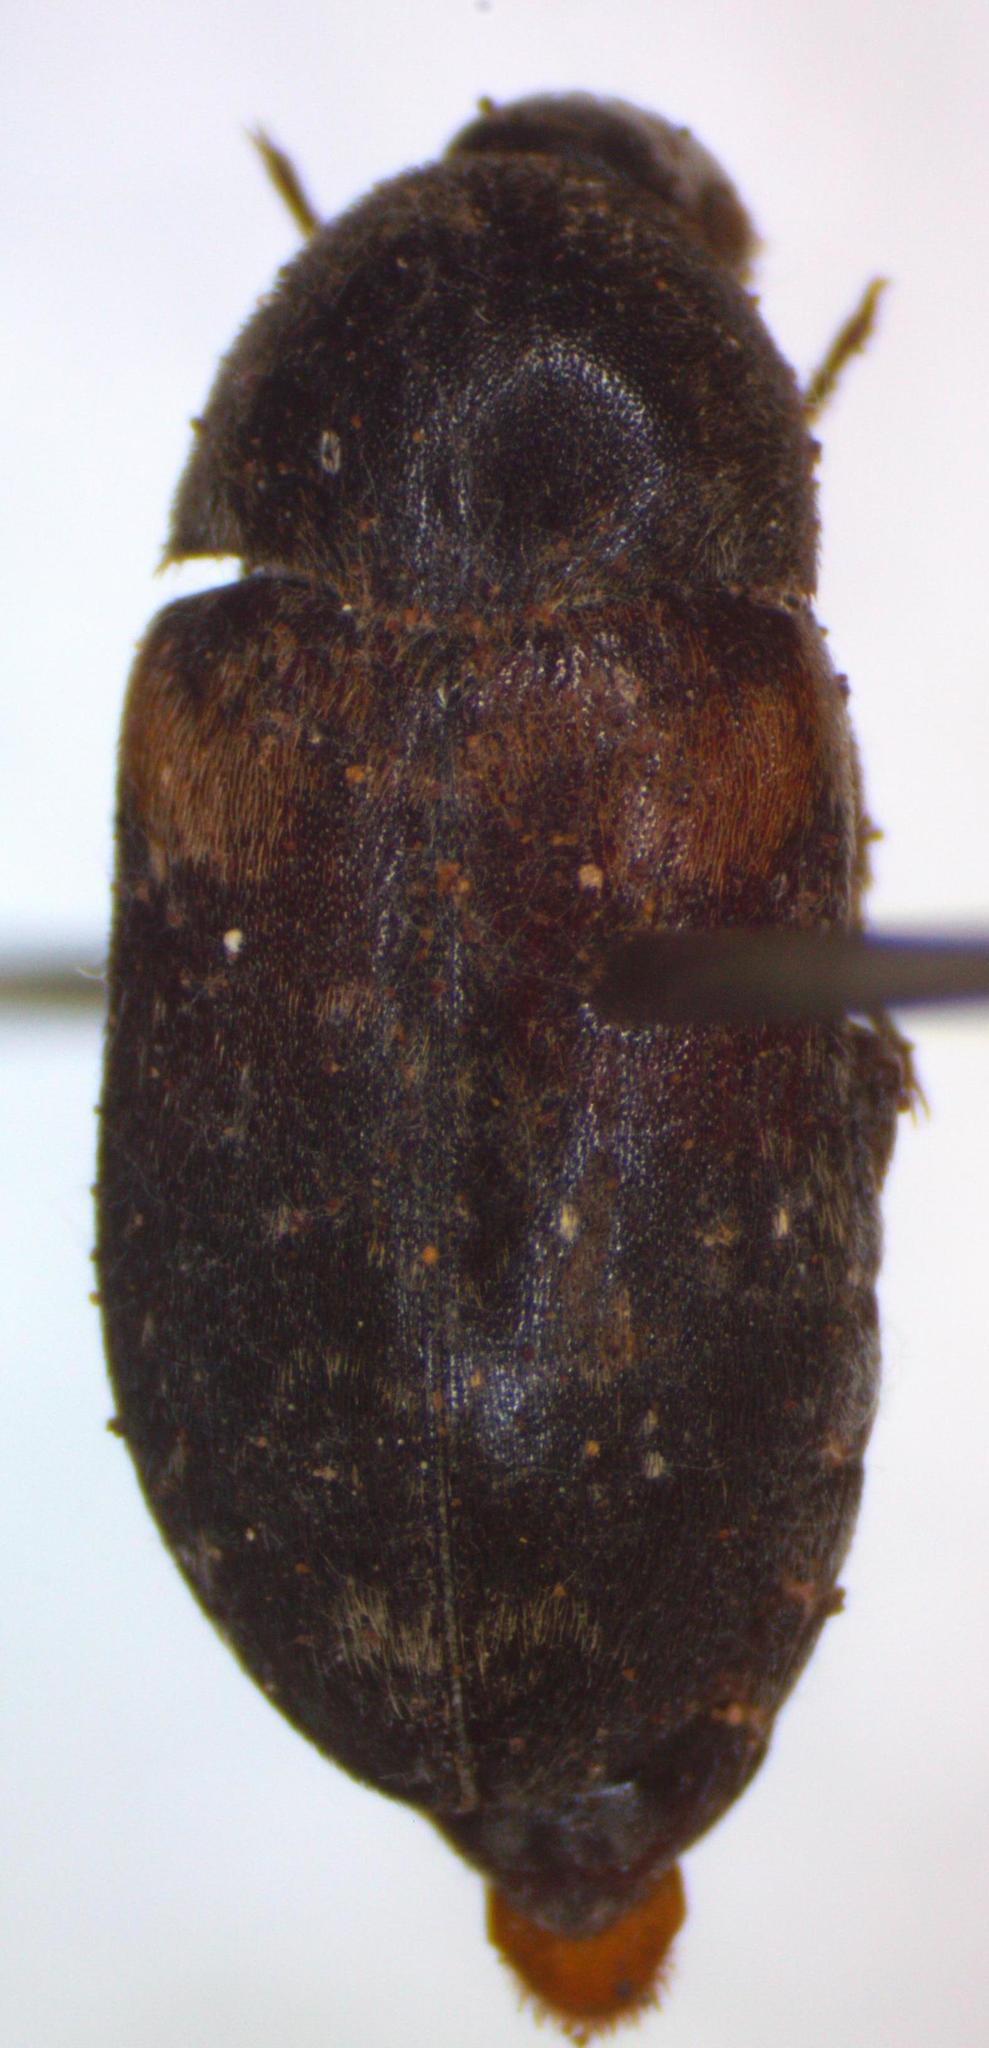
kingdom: Animalia
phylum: Arthropoda
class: Insecta
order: Coleoptera
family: Dermestidae
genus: Dermestes
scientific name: Dermestes carnivorus
